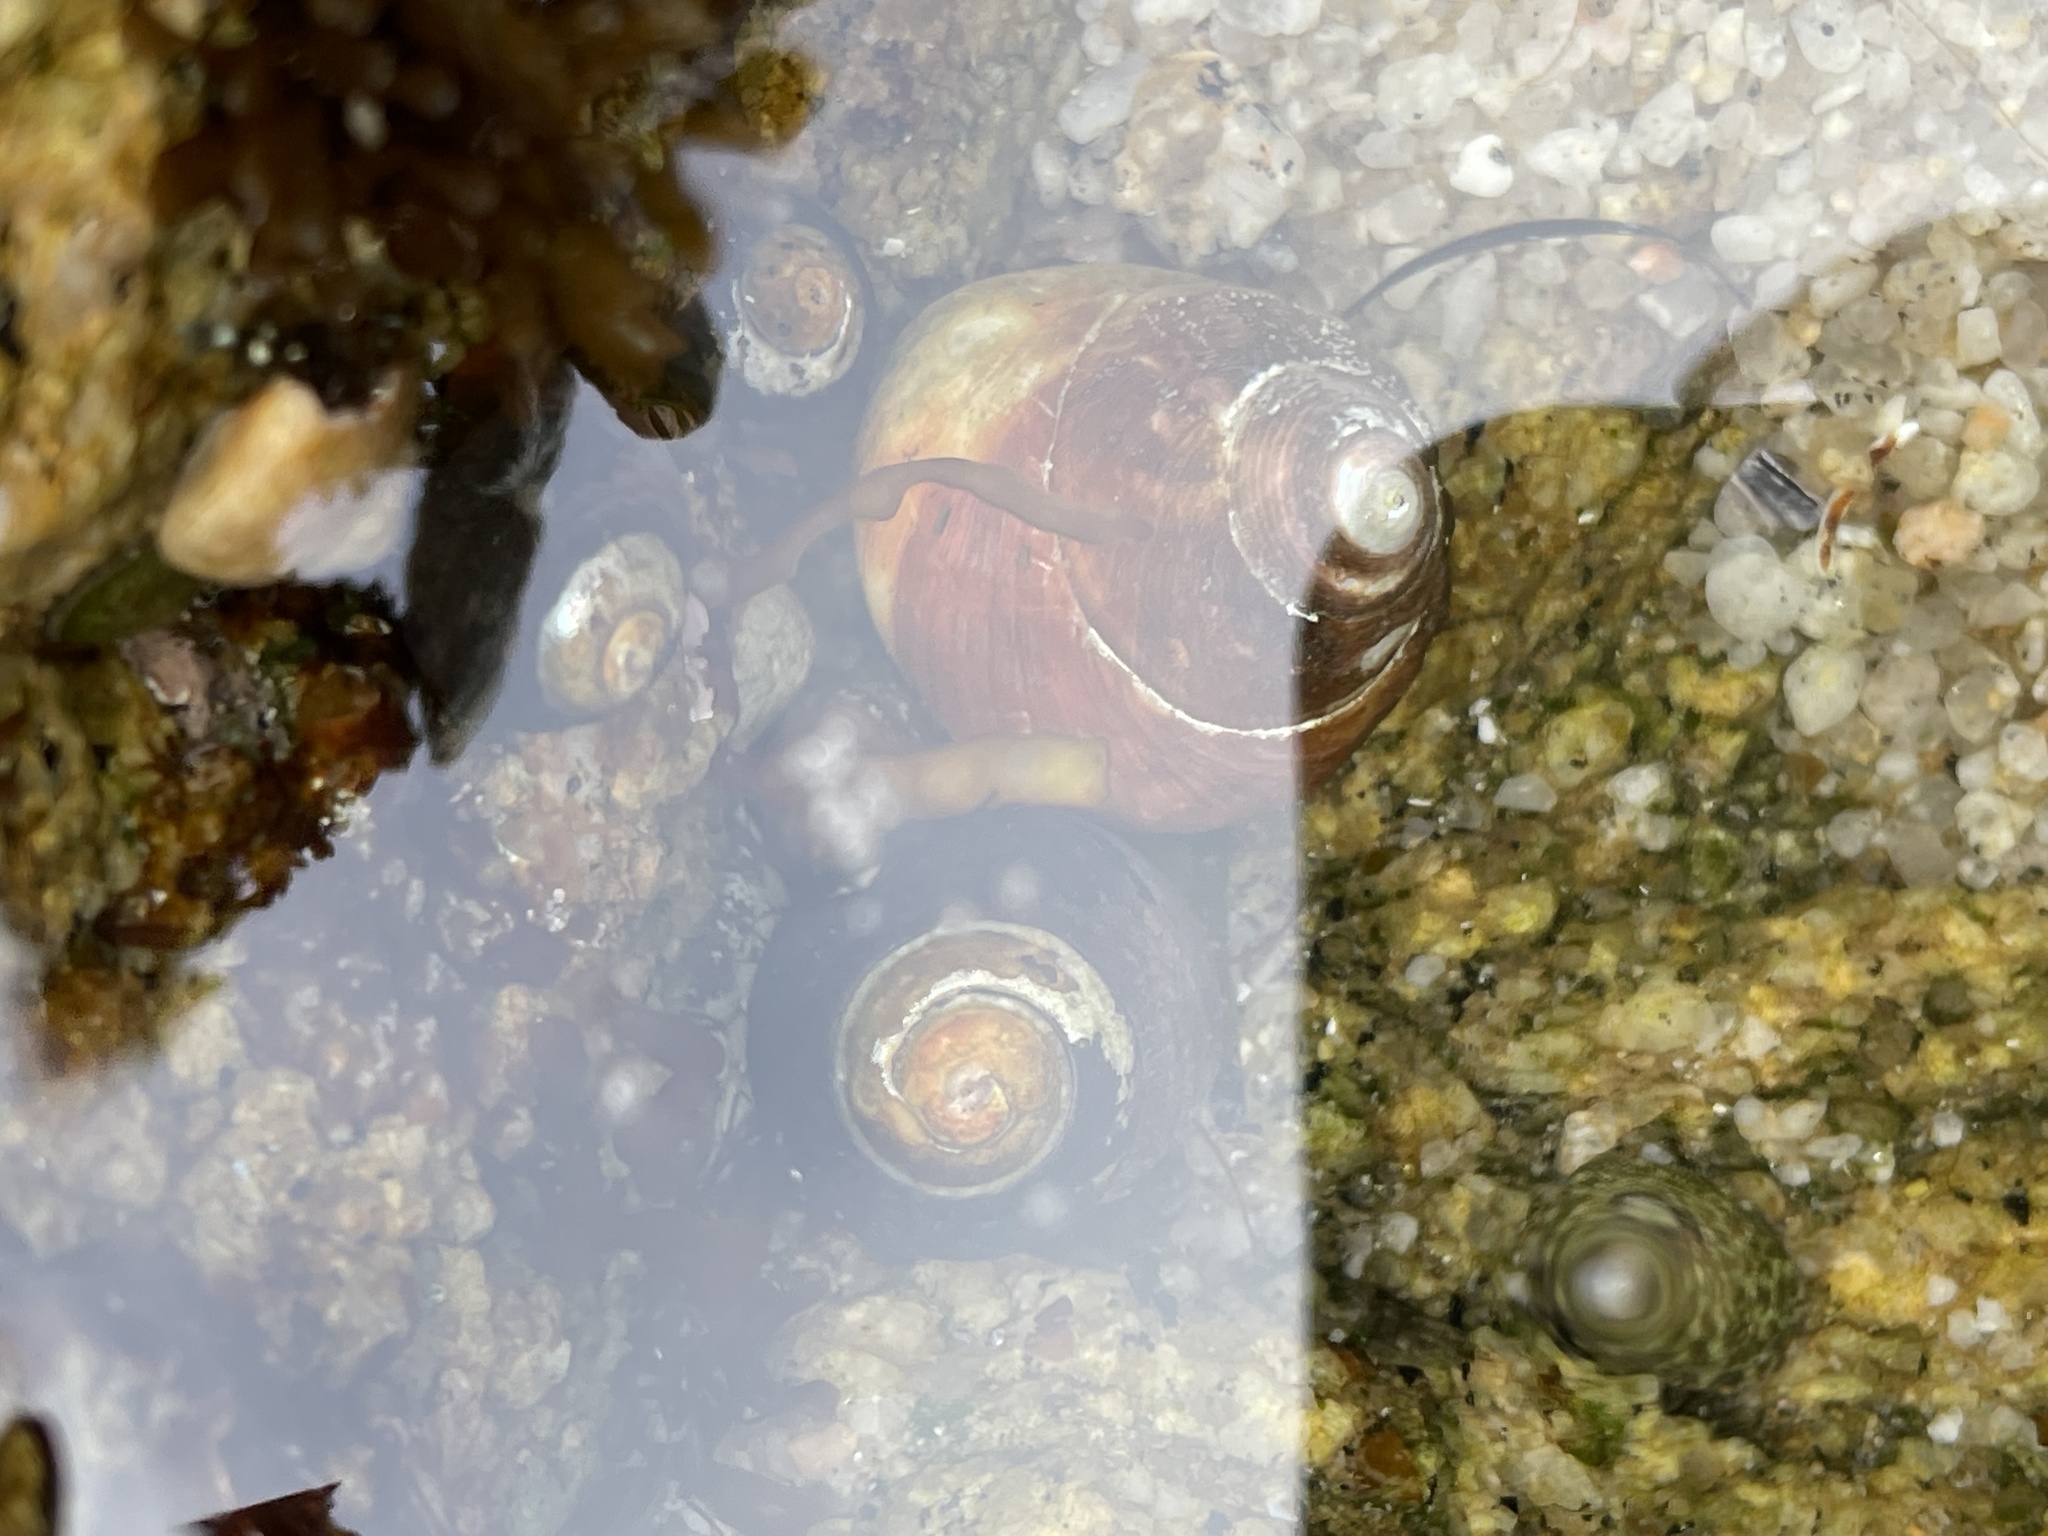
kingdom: Animalia
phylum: Mollusca
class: Gastropoda
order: Trochida
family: Tegulidae
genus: Tegula
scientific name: Tegula funebralis
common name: Black tegula
